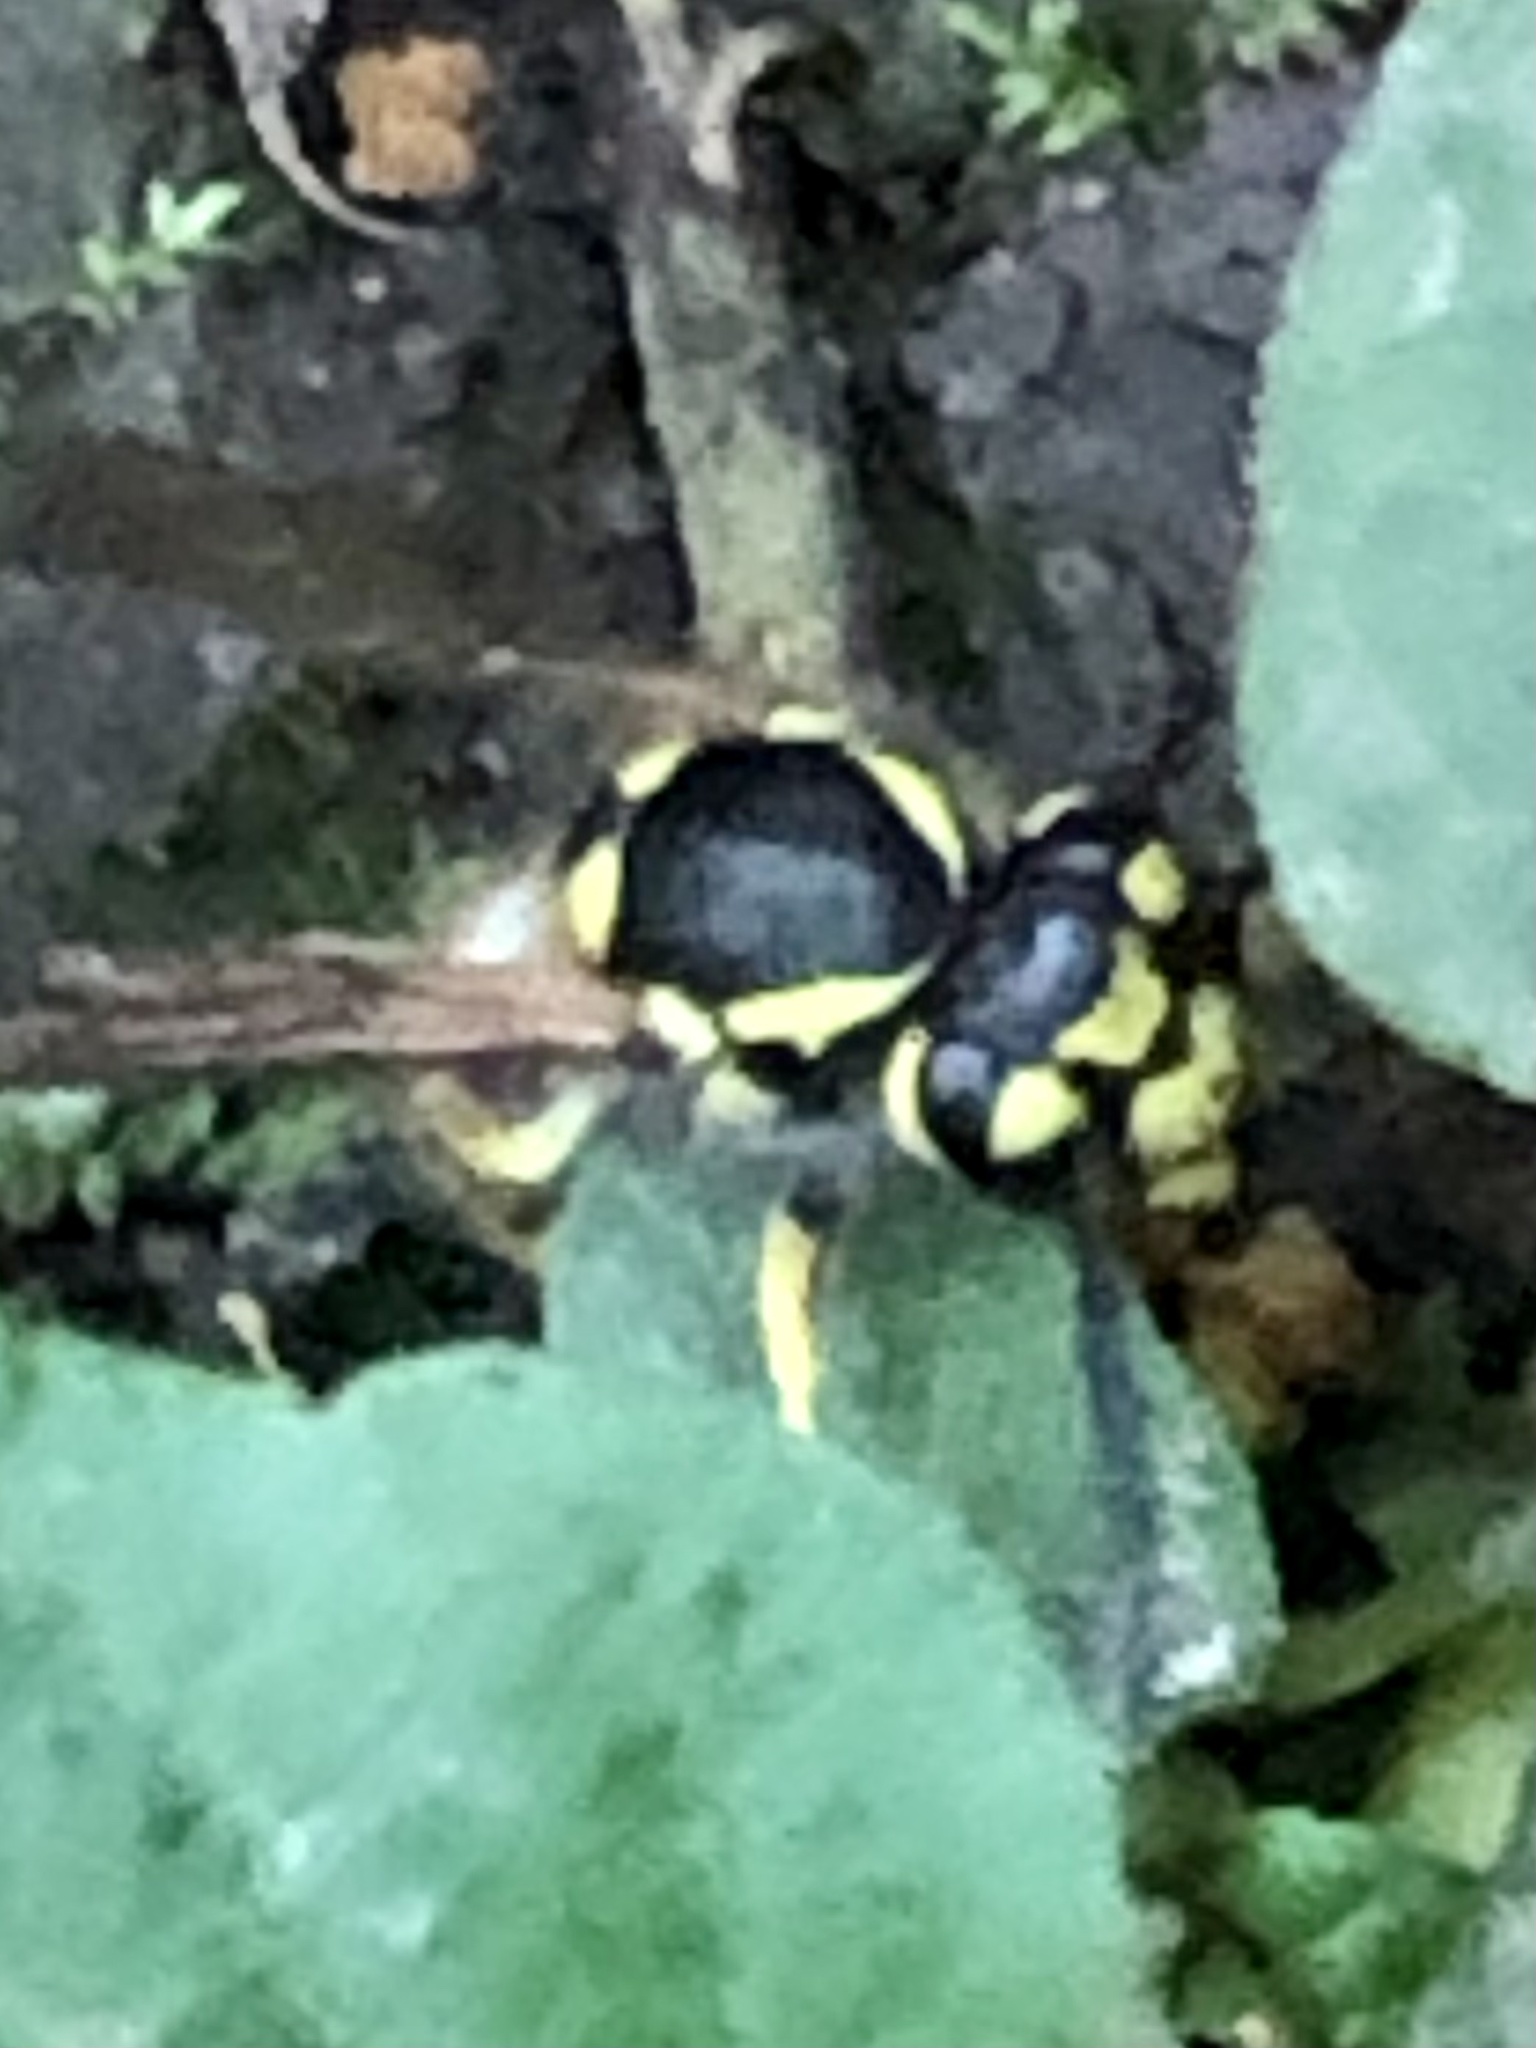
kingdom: Animalia
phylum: Arthropoda
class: Insecta
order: Hymenoptera
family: Vespidae
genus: Vespula
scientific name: Vespula germanica
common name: German wasp
